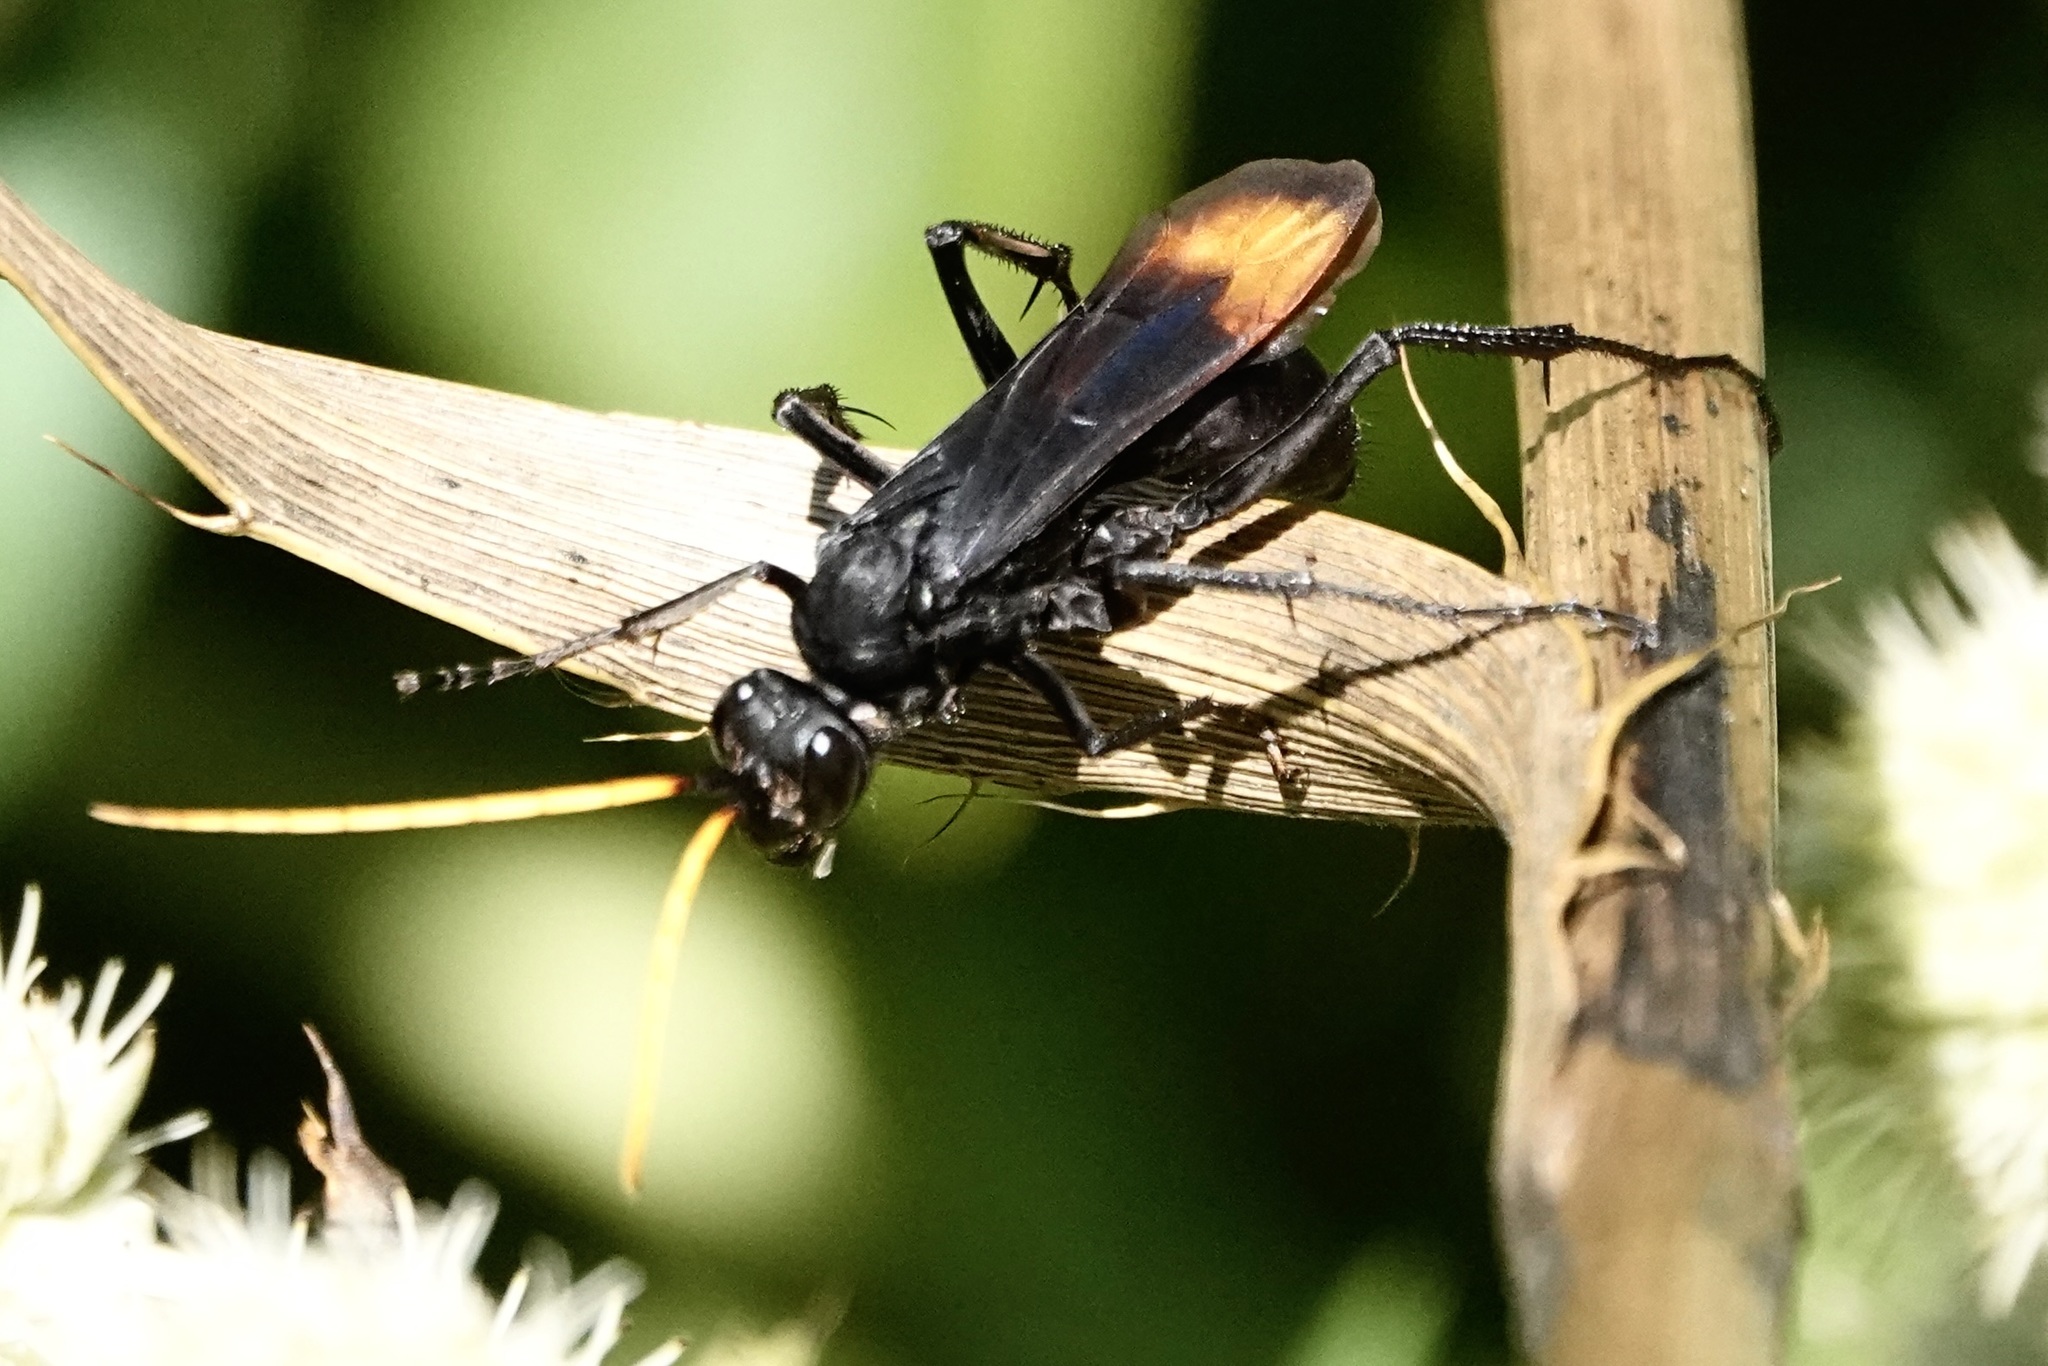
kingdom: Animalia
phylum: Arthropoda
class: Insecta
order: Hymenoptera
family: Pompilidae
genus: Entypus
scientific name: Entypus unifasciatus
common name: Eastern tawny-horned spider wasp
